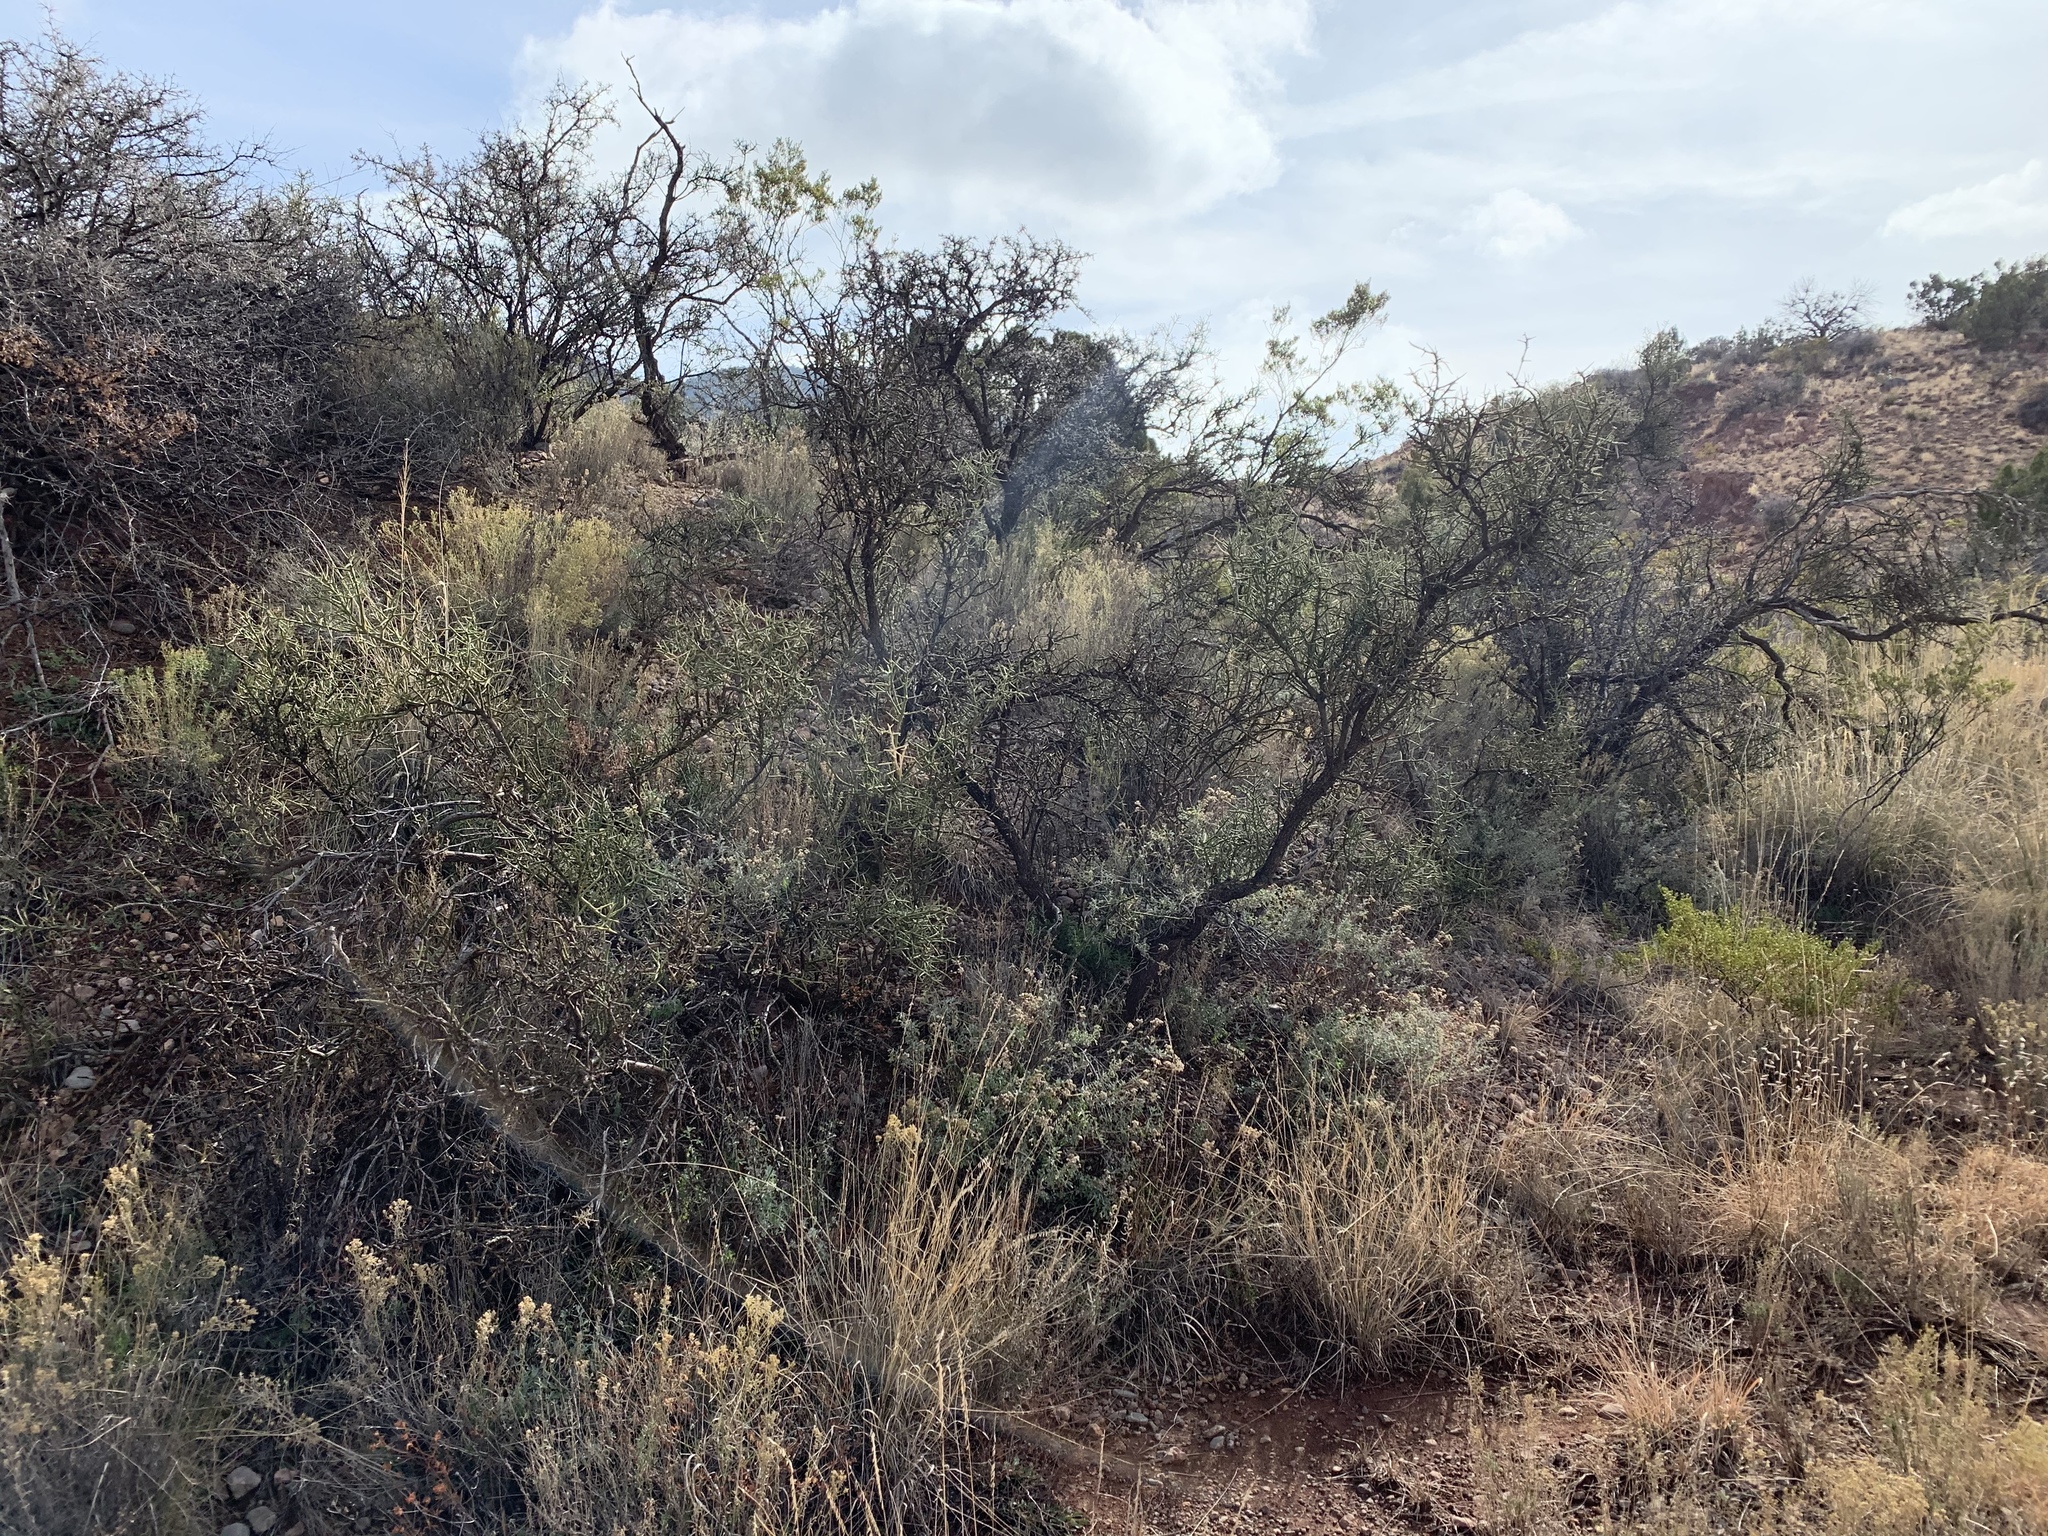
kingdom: Plantae
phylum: Tracheophyta
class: Magnoliopsida
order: Brassicales
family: Koeberliniaceae
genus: Koeberlinia
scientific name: Koeberlinia spinosa
